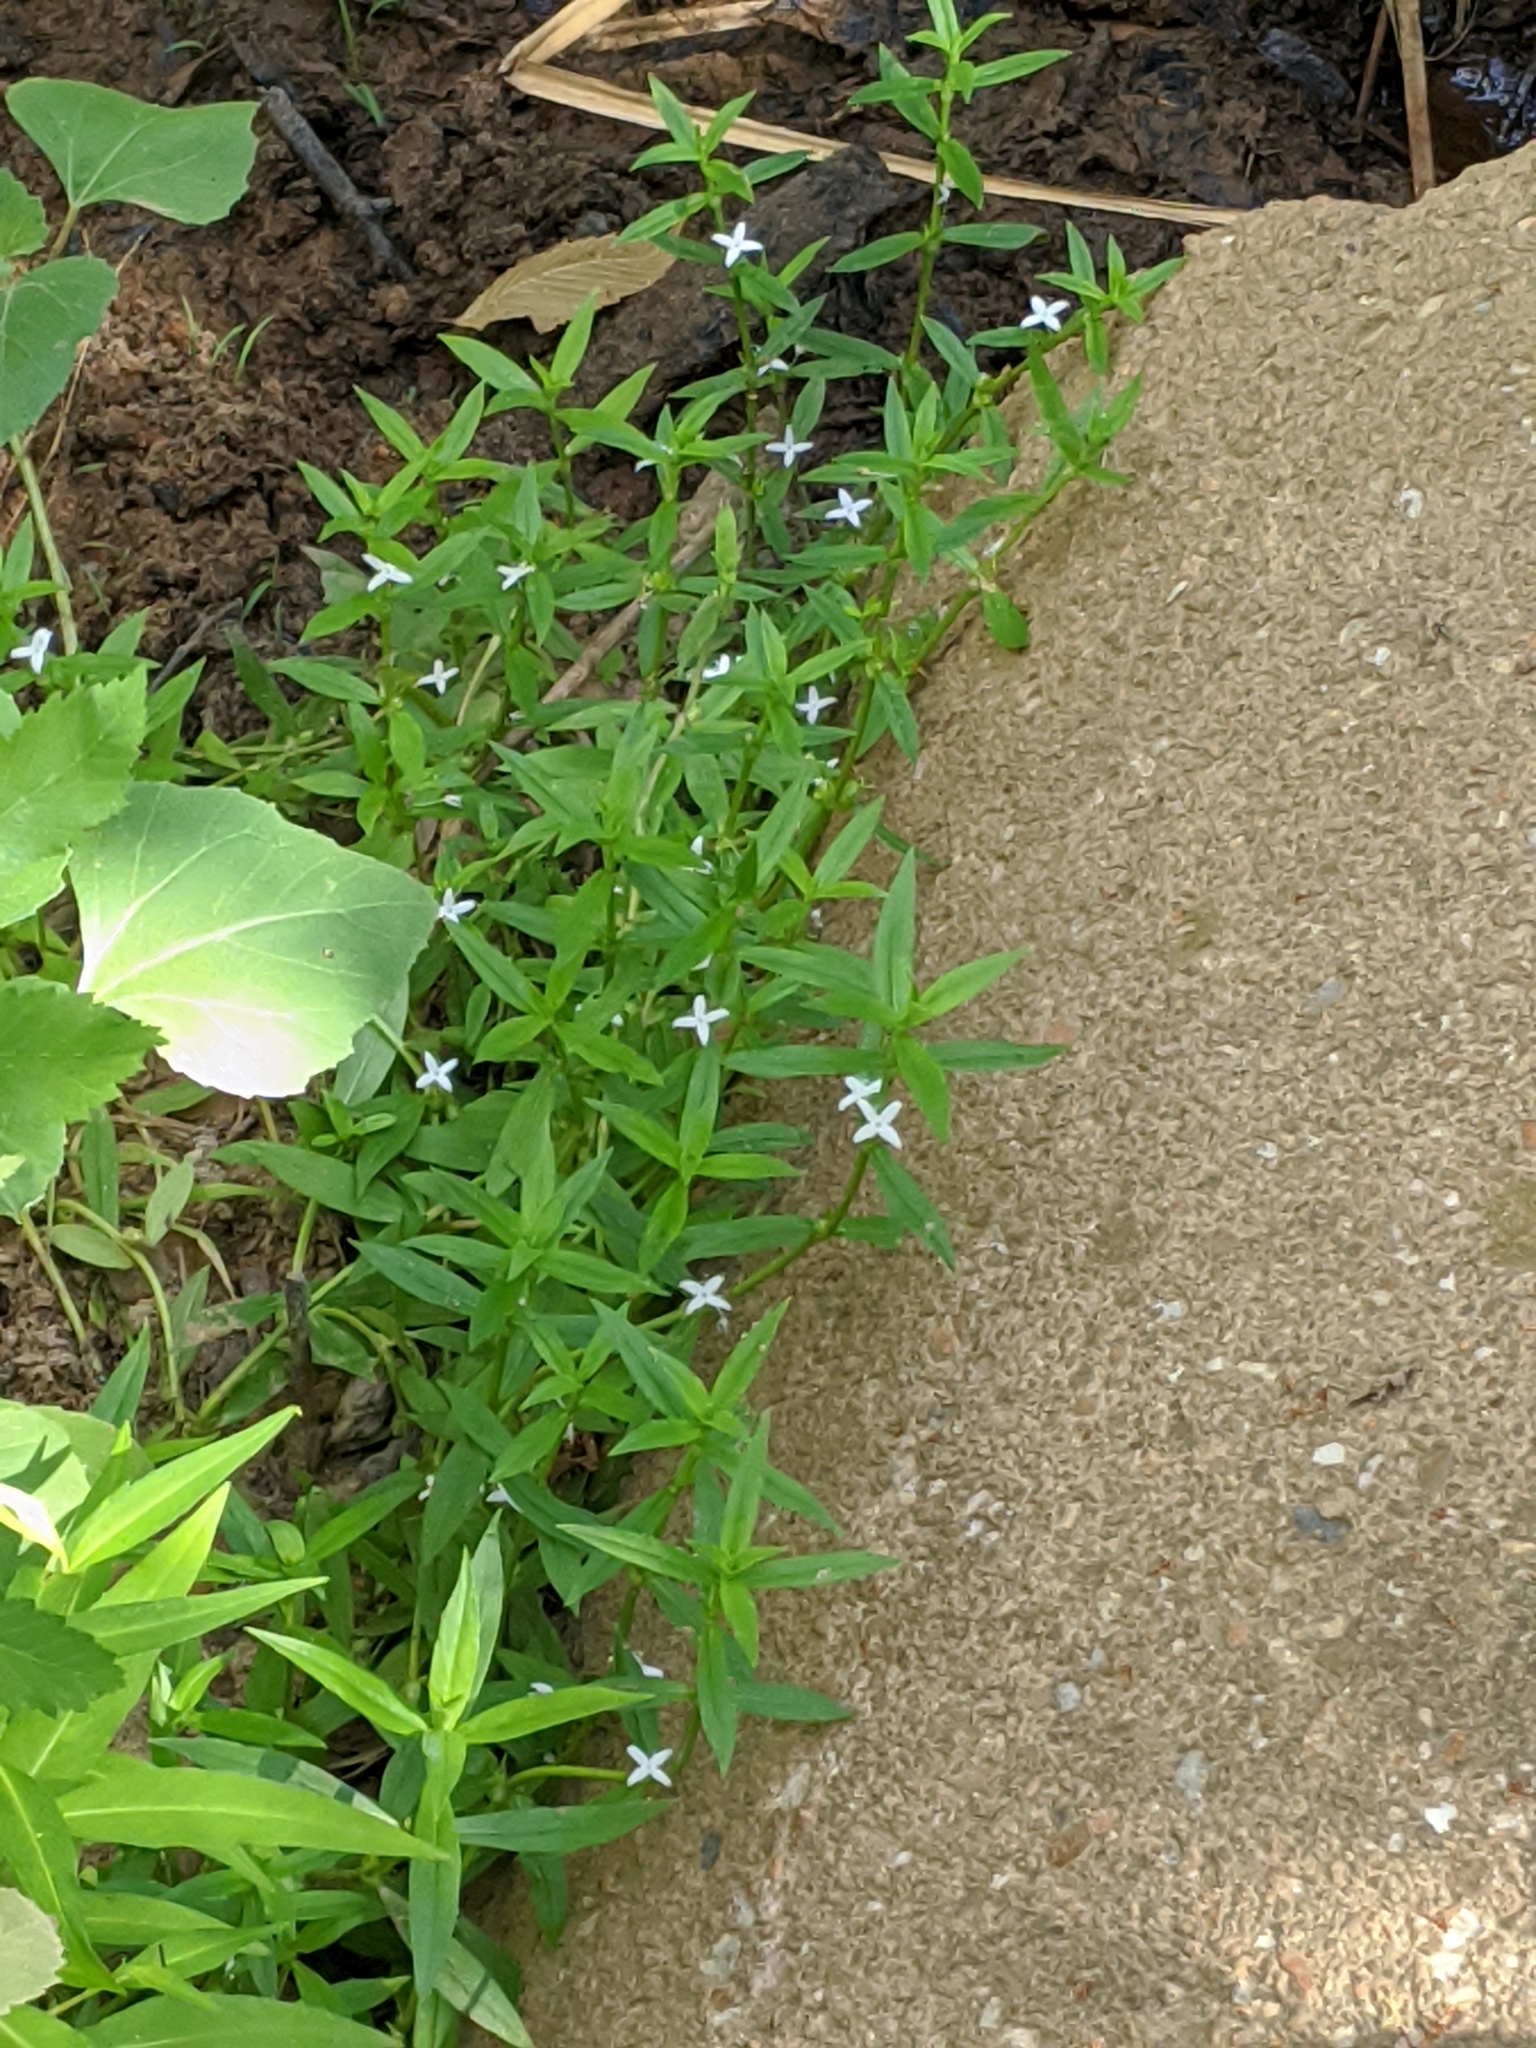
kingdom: Plantae
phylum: Tracheophyta
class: Magnoliopsida
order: Gentianales
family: Rubiaceae
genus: Diodia
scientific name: Diodia virginiana
